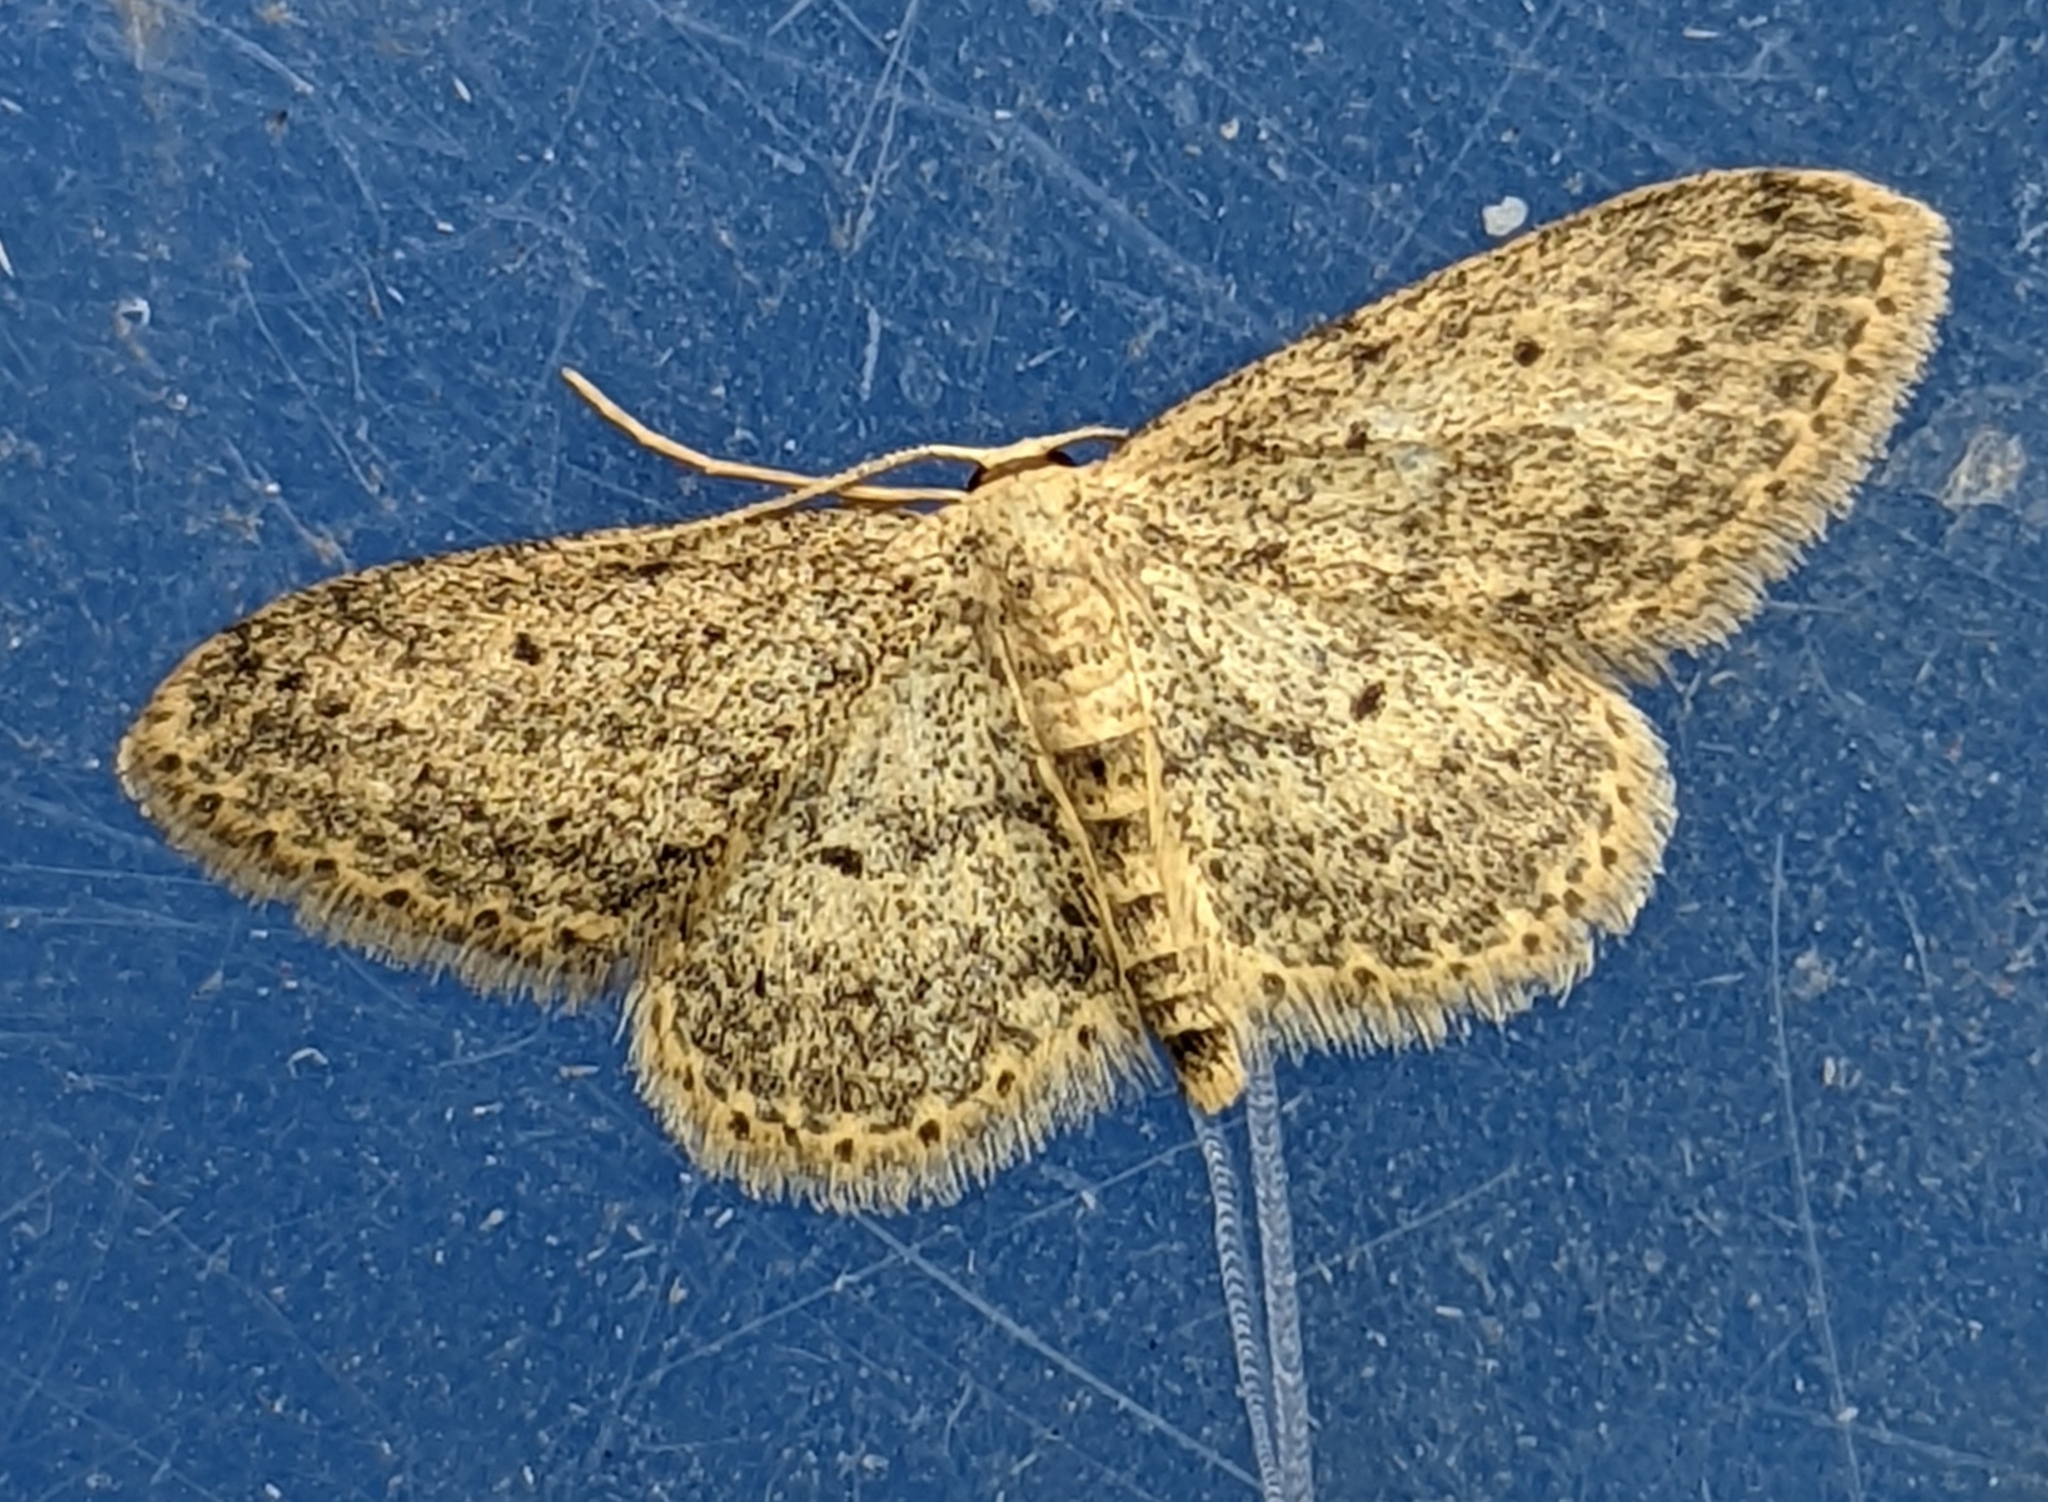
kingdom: Animalia
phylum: Arthropoda
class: Insecta
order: Lepidoptera
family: Geometridae
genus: Idaea
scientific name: Idaea seriata
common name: Small dusty wave
